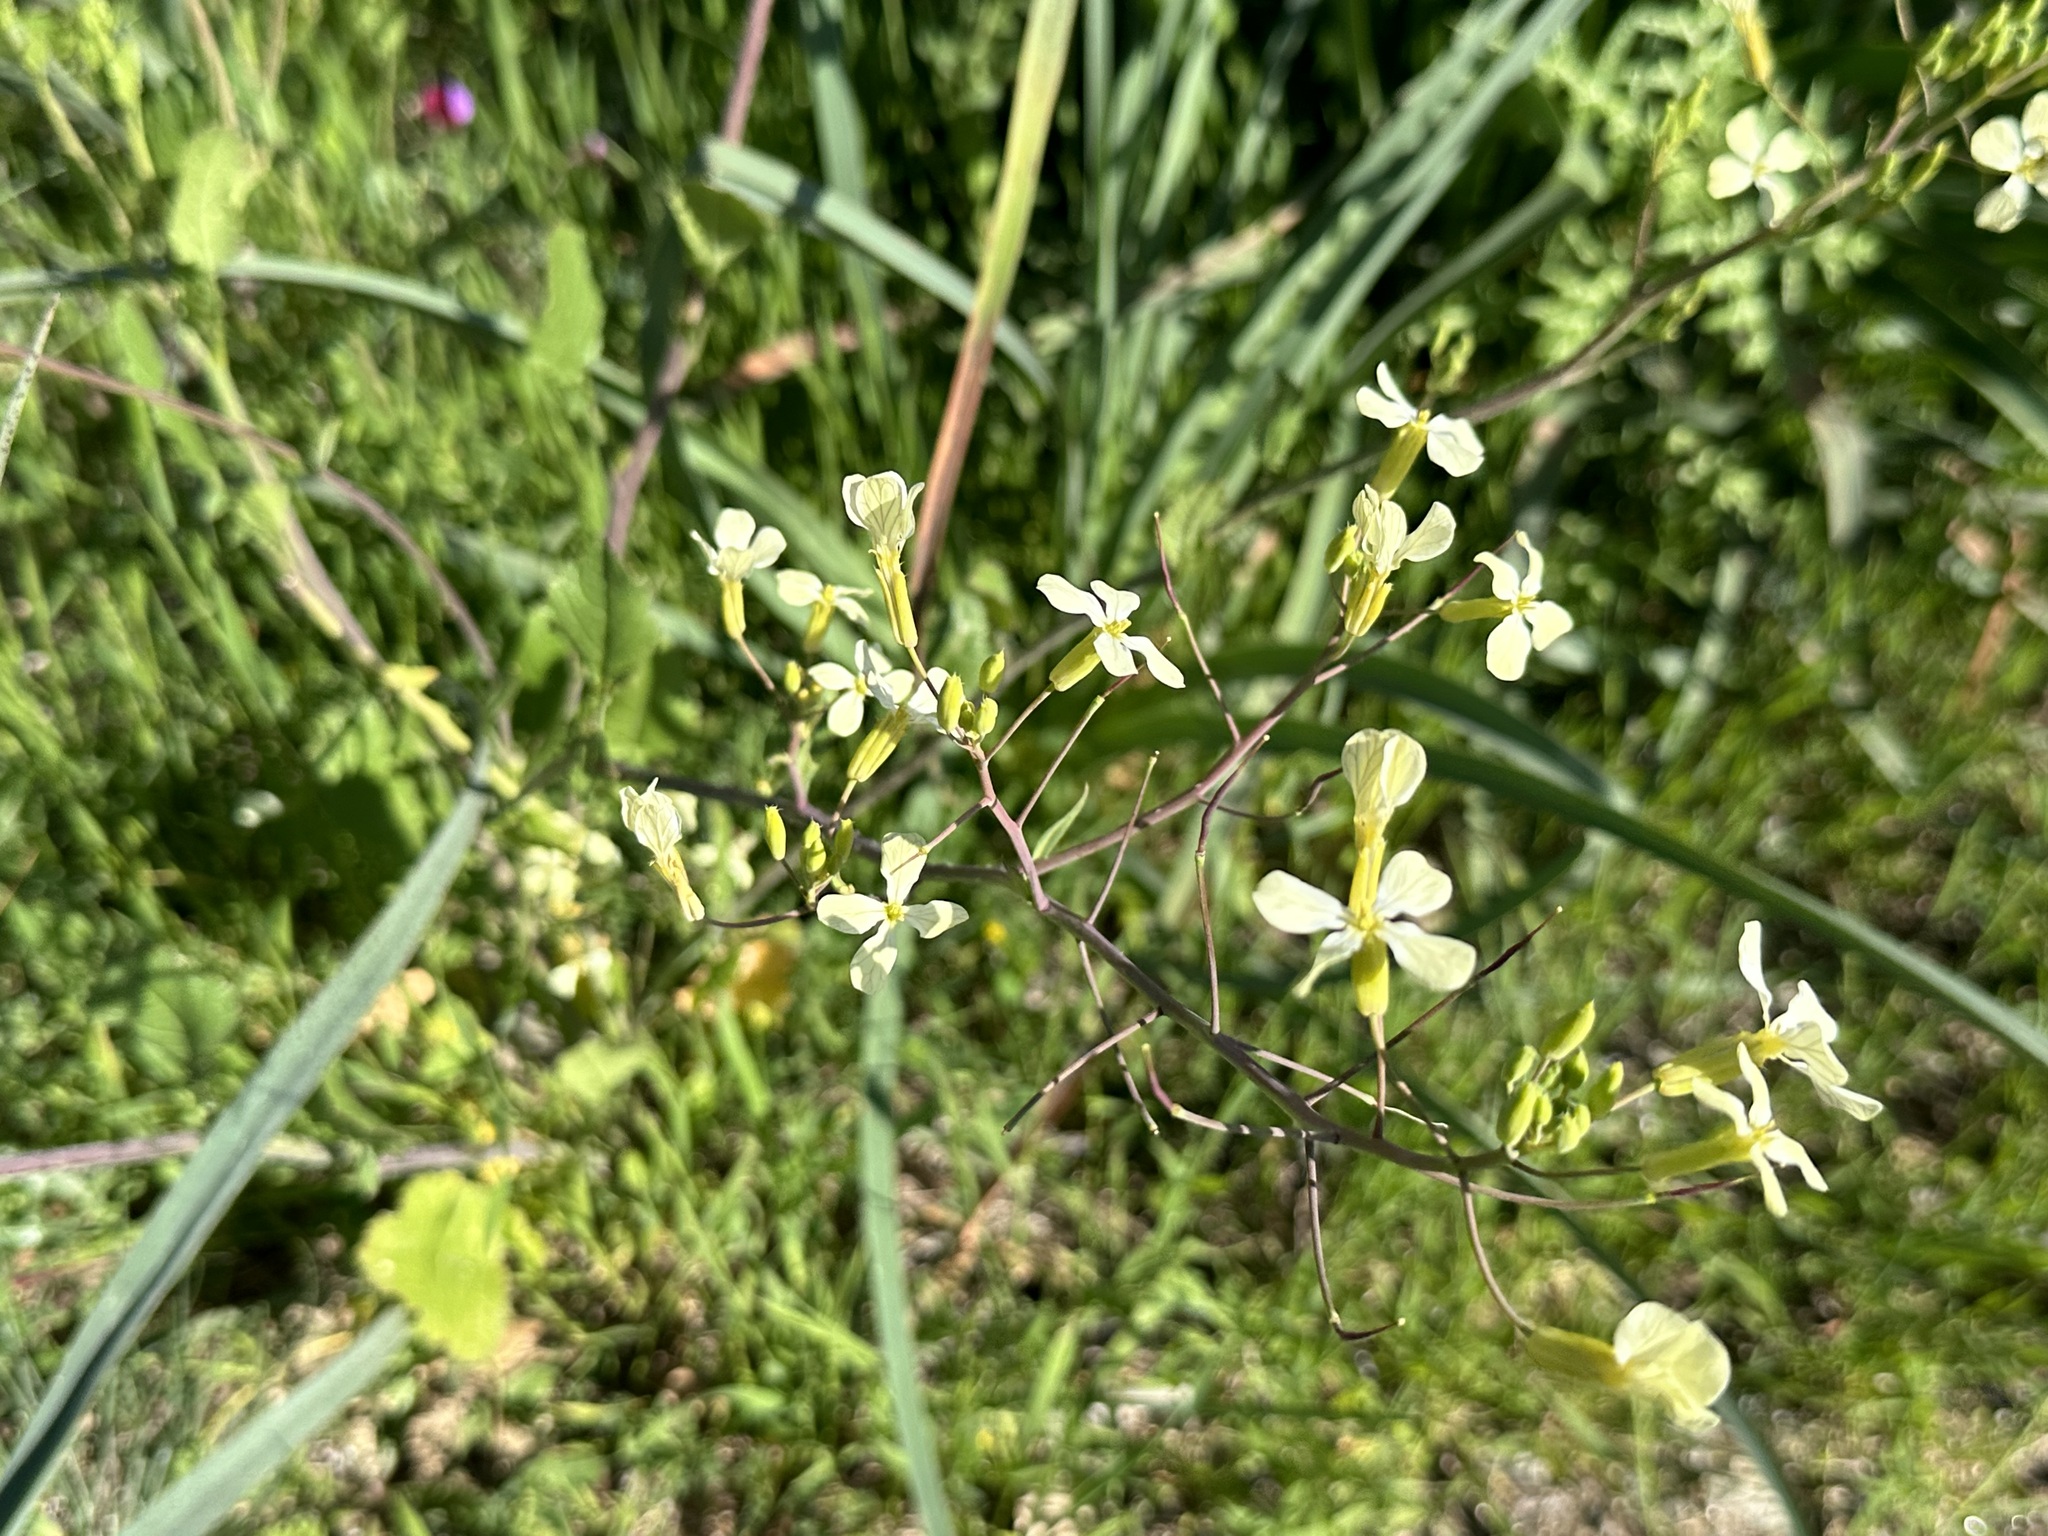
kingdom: Plantae
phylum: Tracheophyta
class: Magnoliopsida
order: Brassicales
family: Brassicaceae
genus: Raphanus
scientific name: Raphanus raphanistrum
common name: Wild radish
